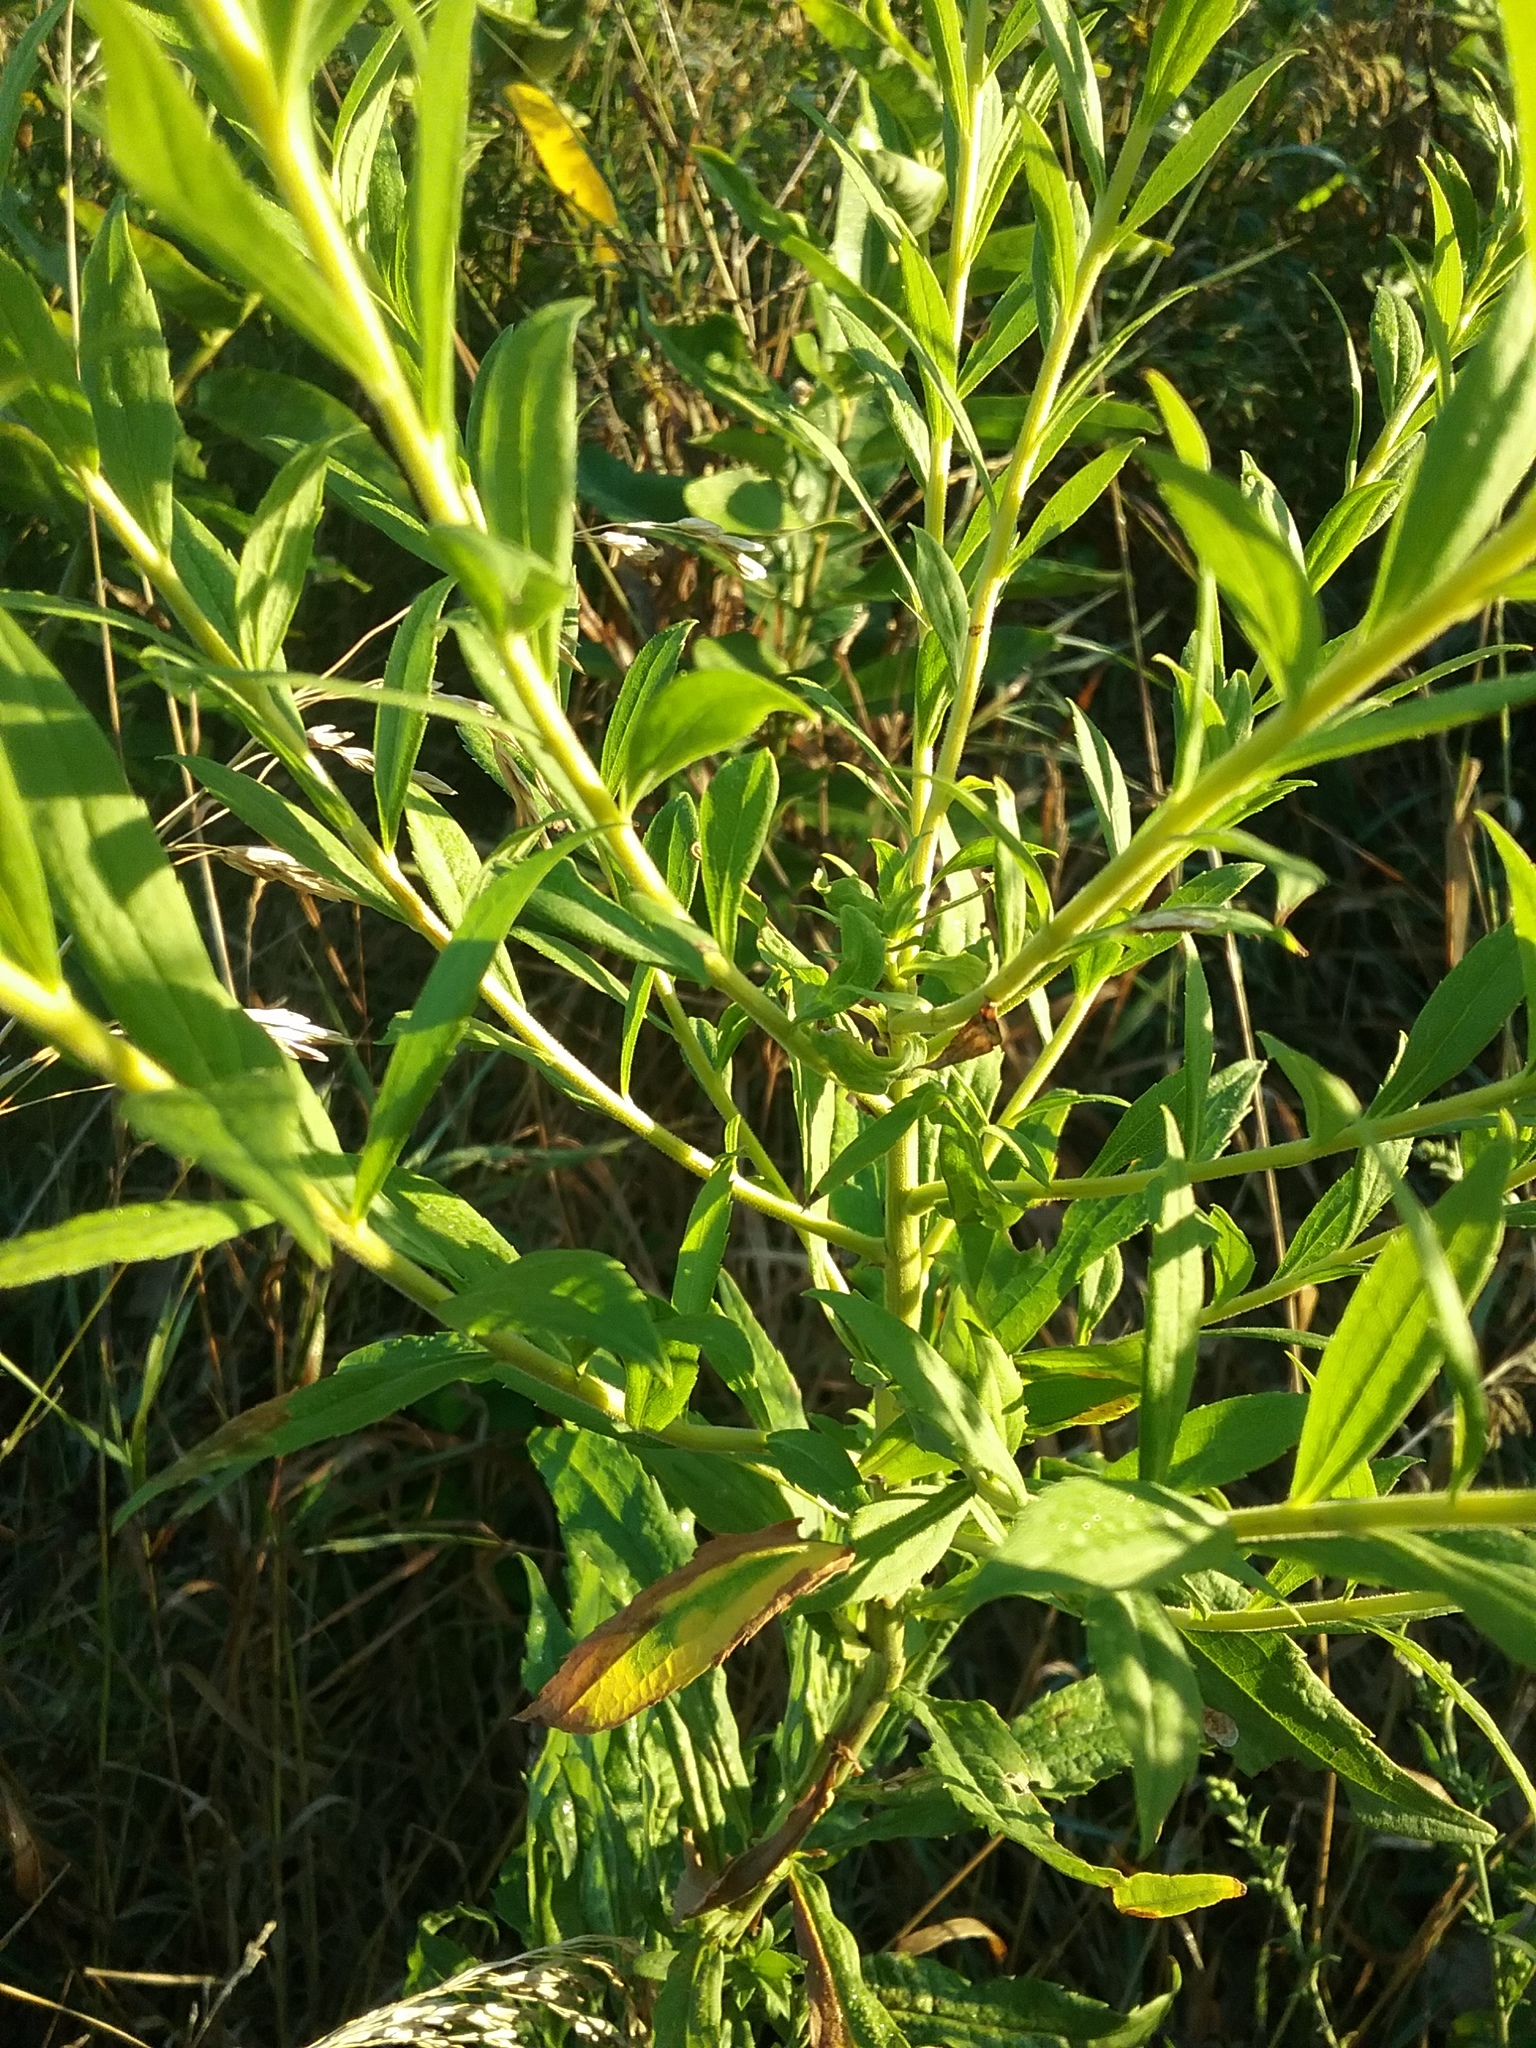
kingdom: Plantae
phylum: Tracheophyta
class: Magnoliopsida
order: Asterales
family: Asteraceae
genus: Solidago
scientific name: Solidago canadensis
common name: Canada goldenrod
